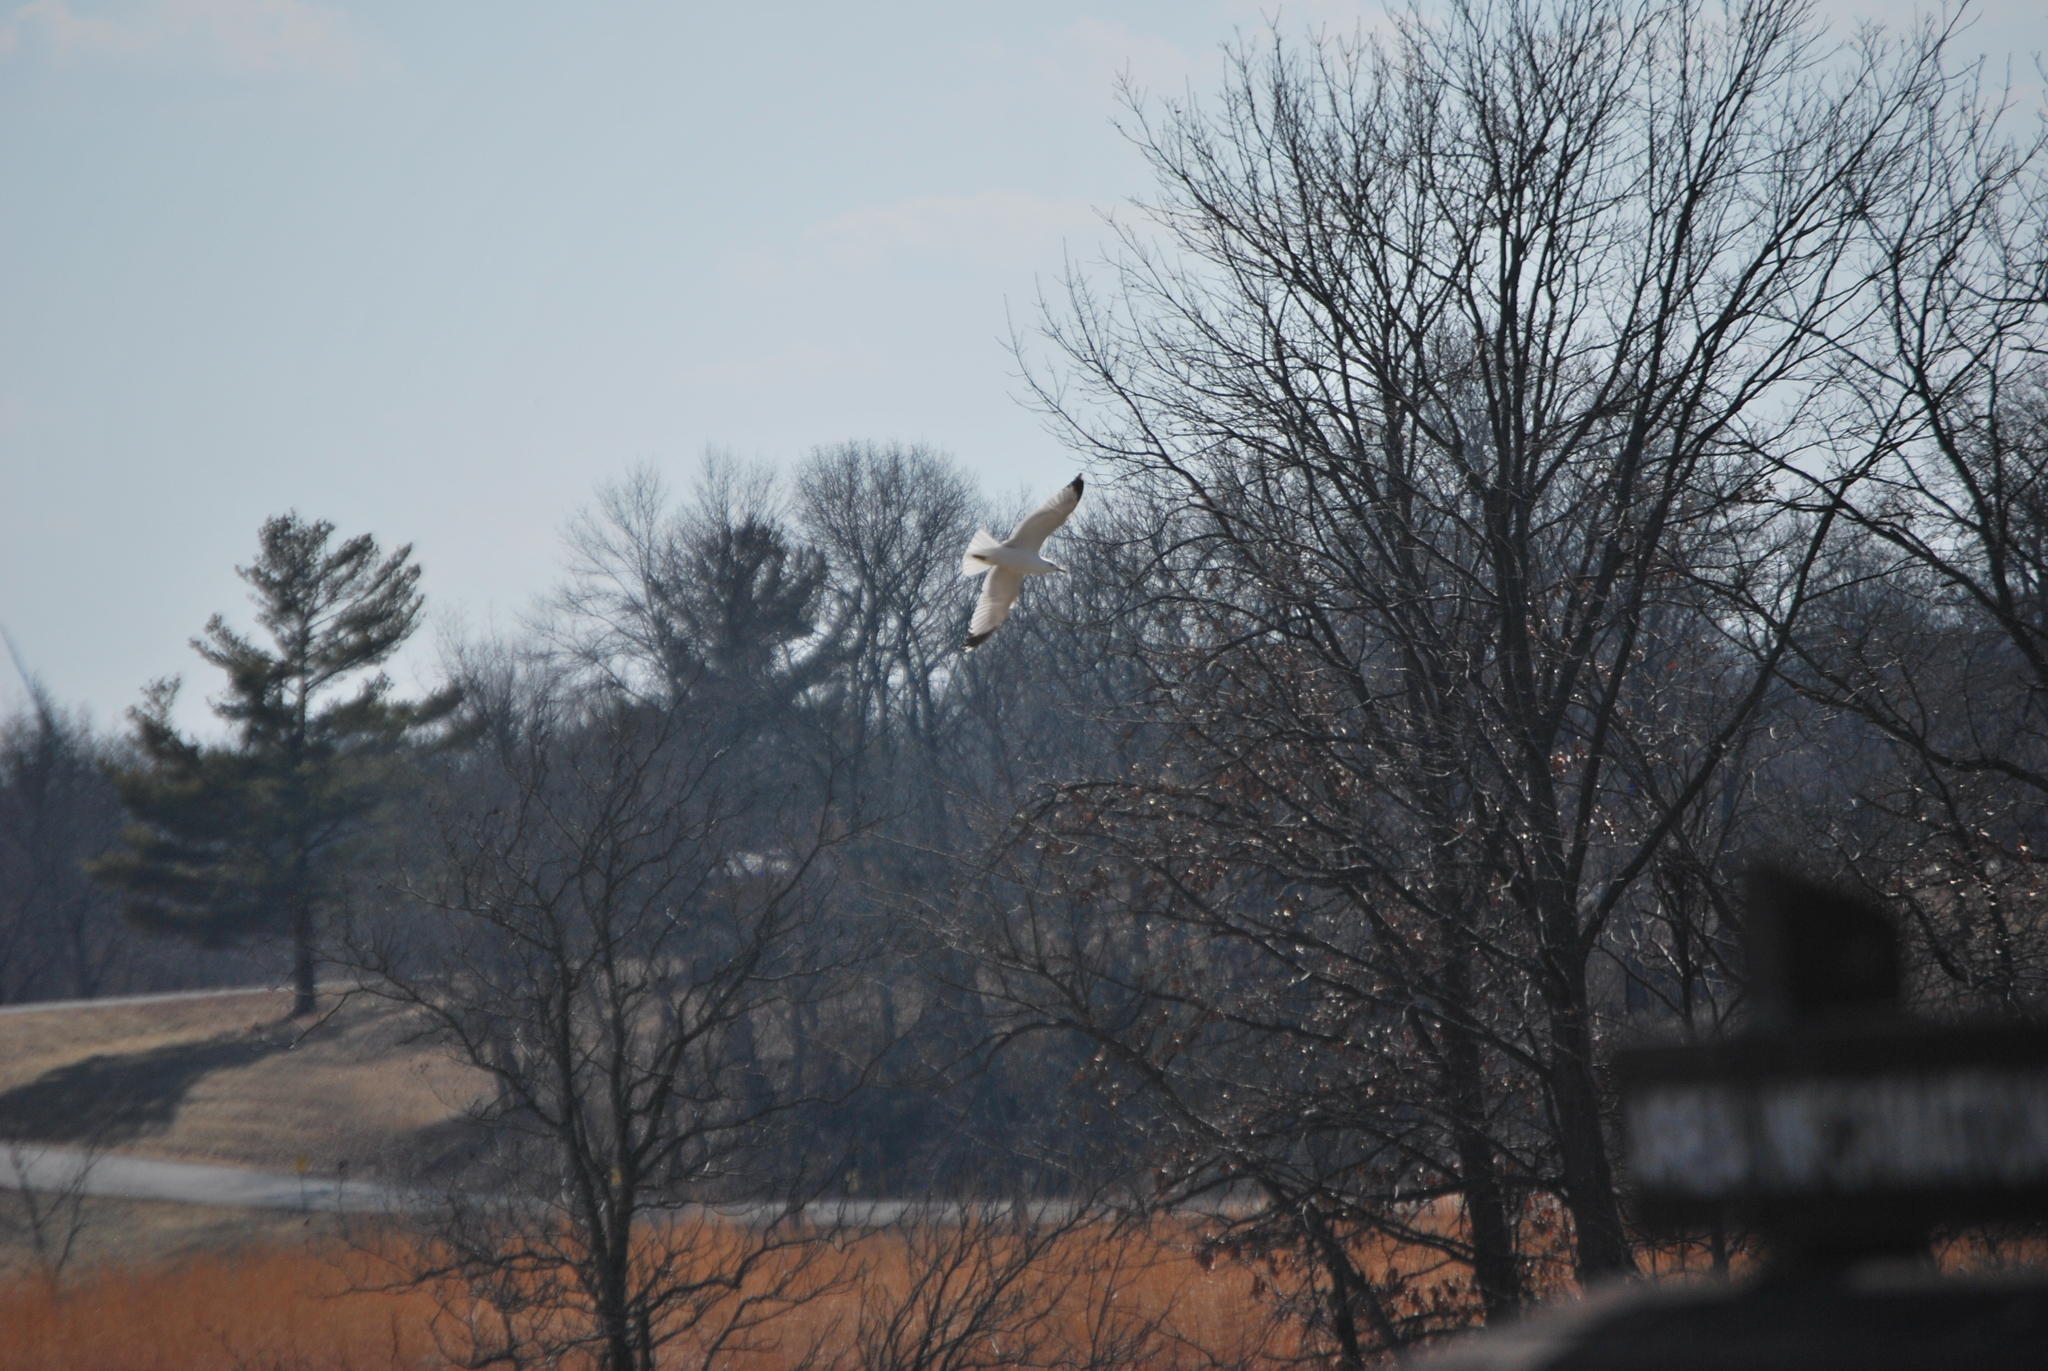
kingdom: Animalia
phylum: Chordata
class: Aves
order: Charadriiformes
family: Laridae
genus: Larus
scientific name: Larus delawarensis
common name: Ring-billed gull
